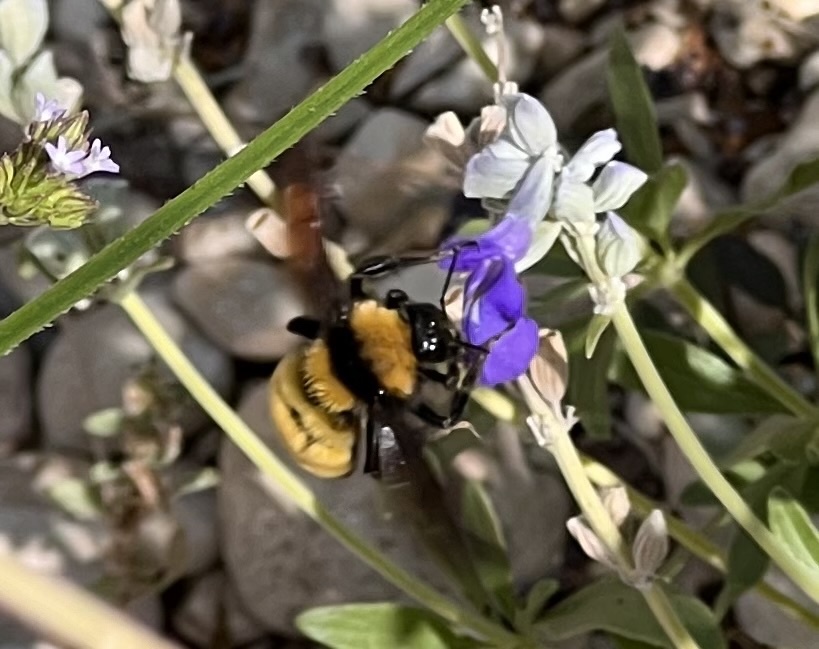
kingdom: Animalia
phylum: Arthropoda
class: Insecta
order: Hymenoptera
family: Apidae
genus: Bombus
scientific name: Bombus sonorus
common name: Sonoran bumble bee
